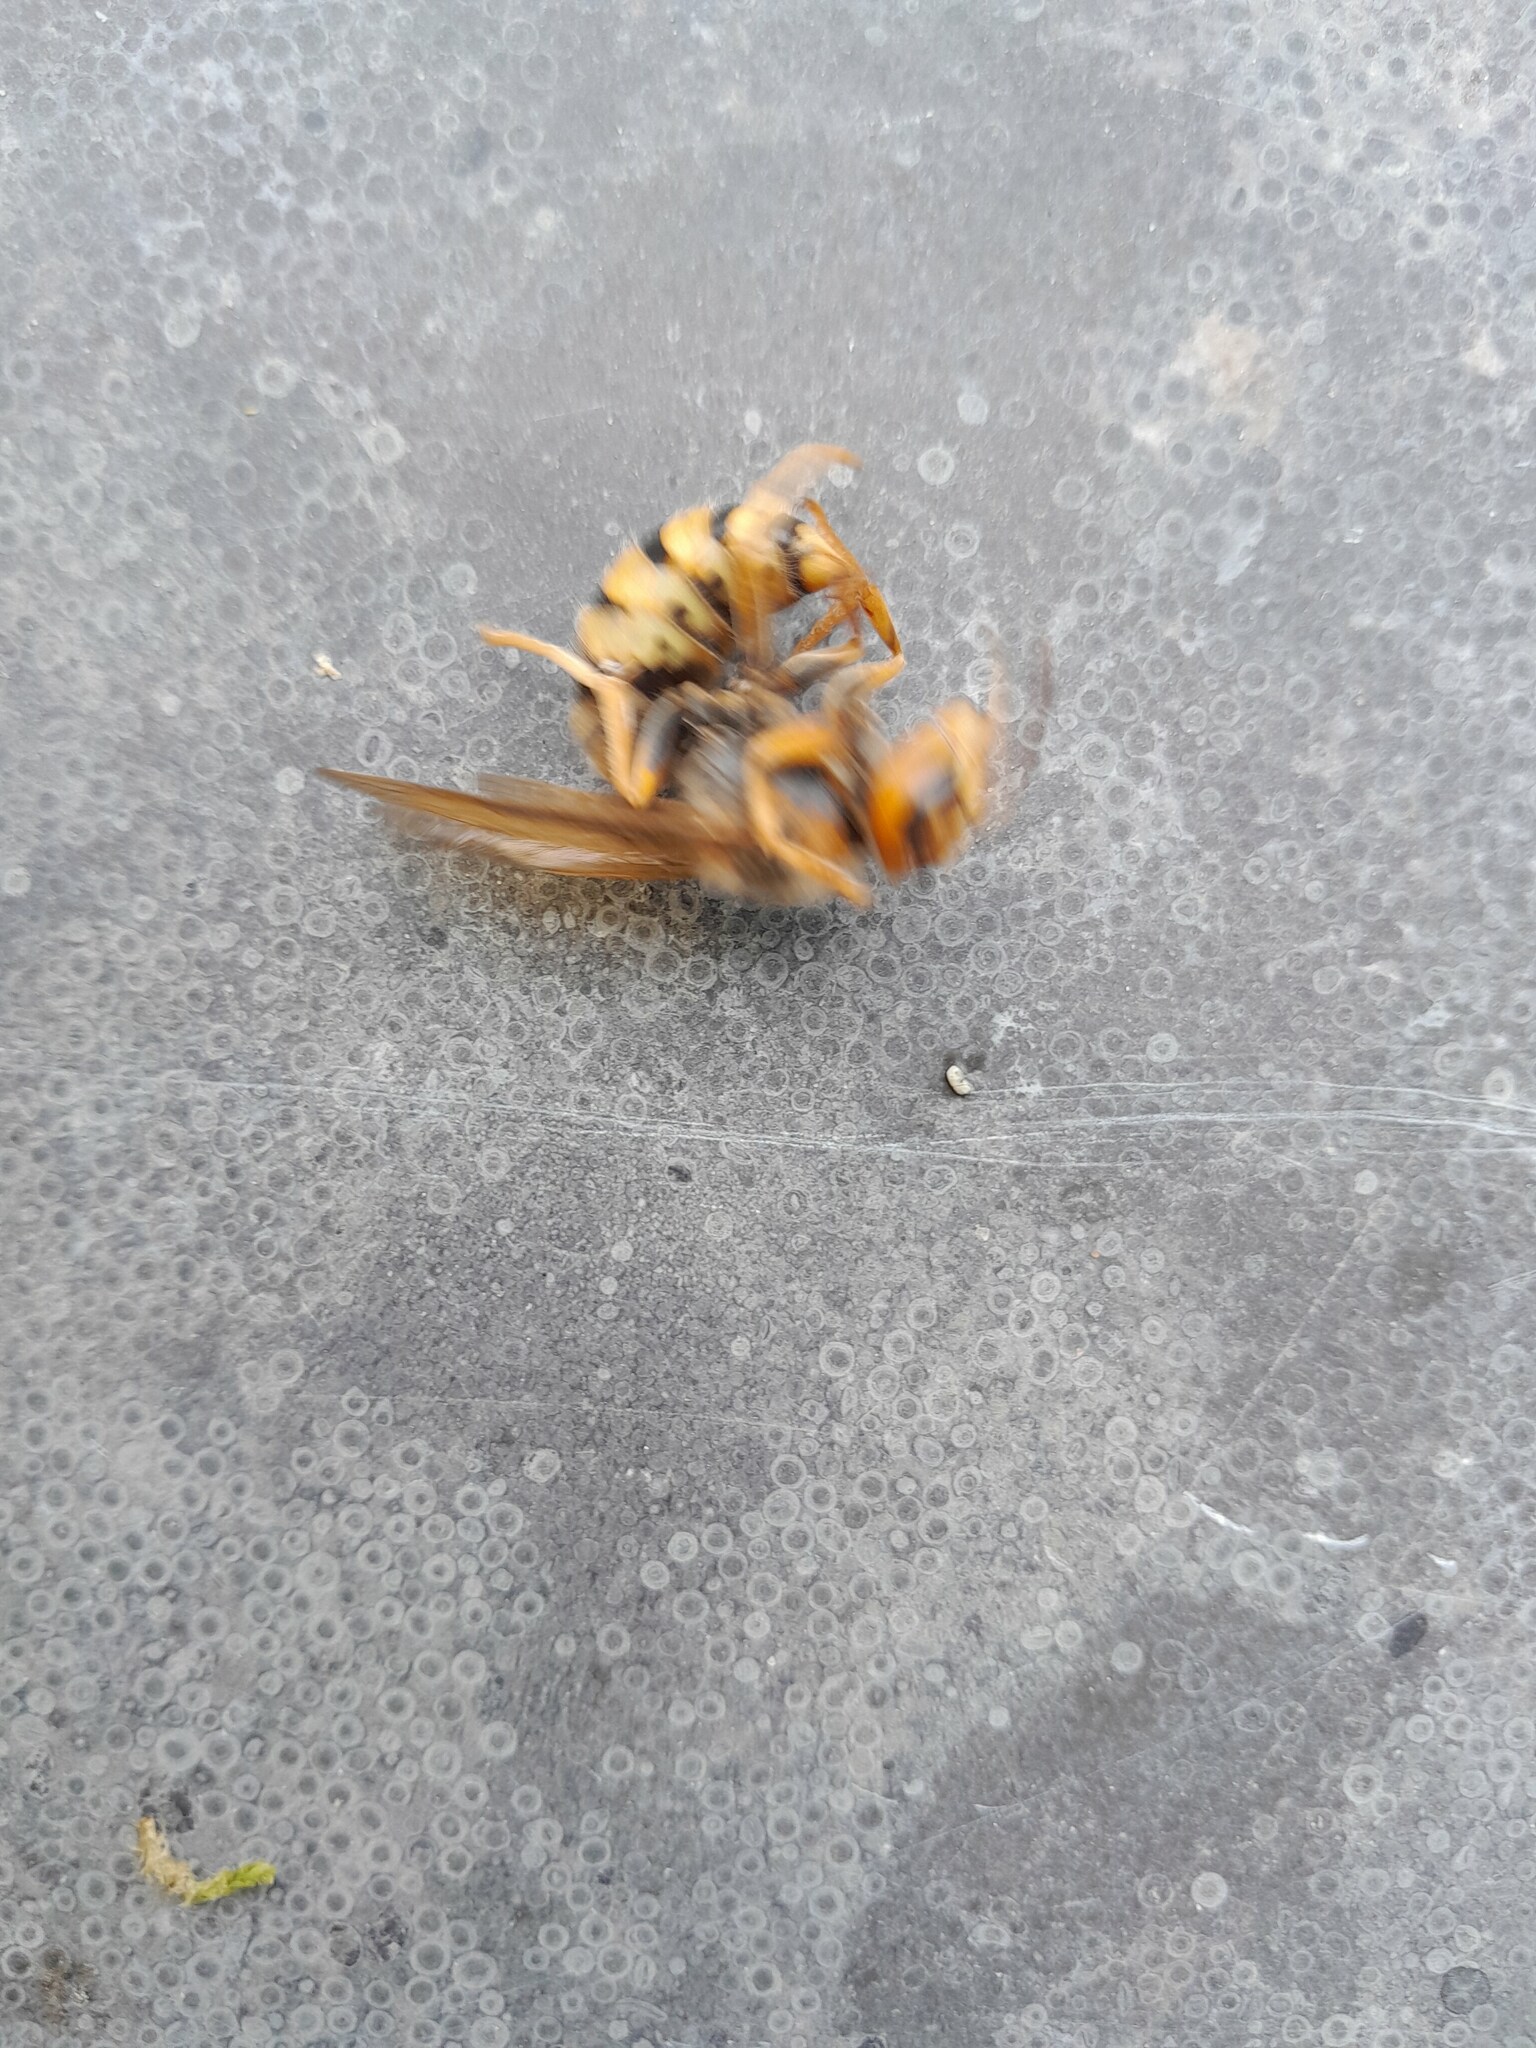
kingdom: Animalia
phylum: Arthropoda
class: Insecta
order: Hymenoptera
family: Vespidae
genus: Vespa
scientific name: Vespa crabro
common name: Hornet
